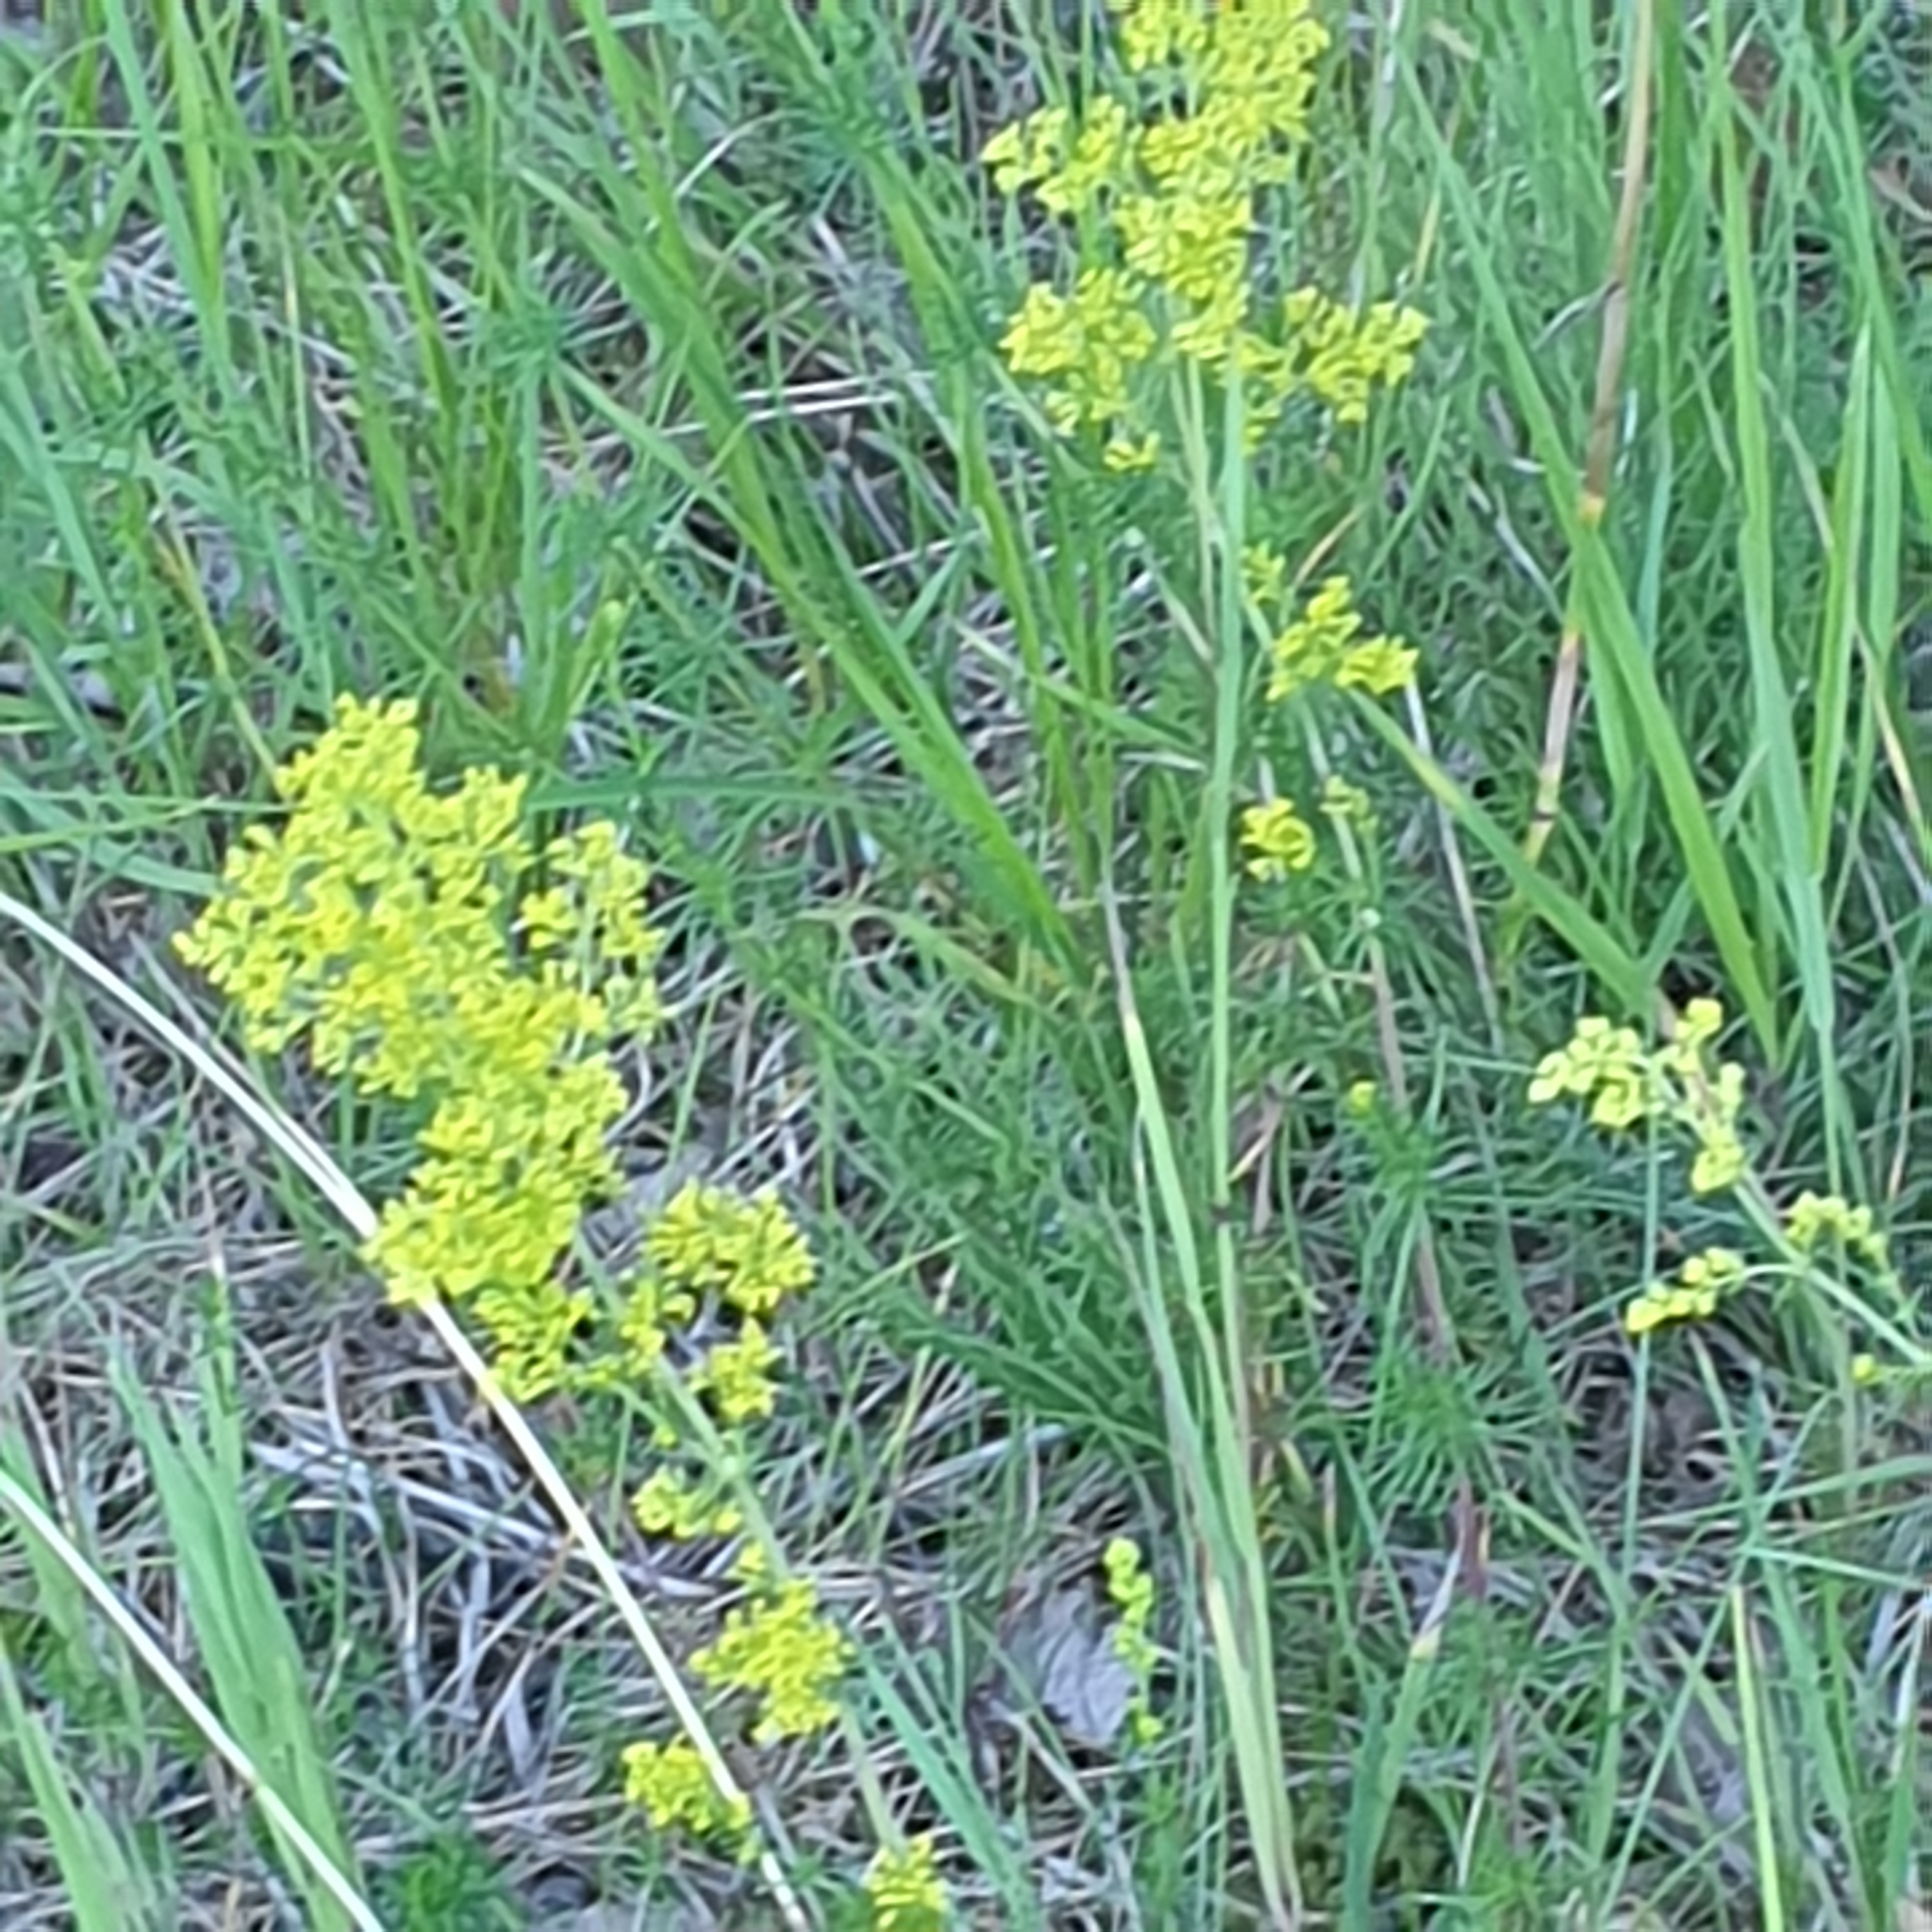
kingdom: Plantae
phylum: Tracheophyta
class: Magnoliopsida
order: Gentianales
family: Rubiaceae
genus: Galium
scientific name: Galium verum
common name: Lady's bedstraw
